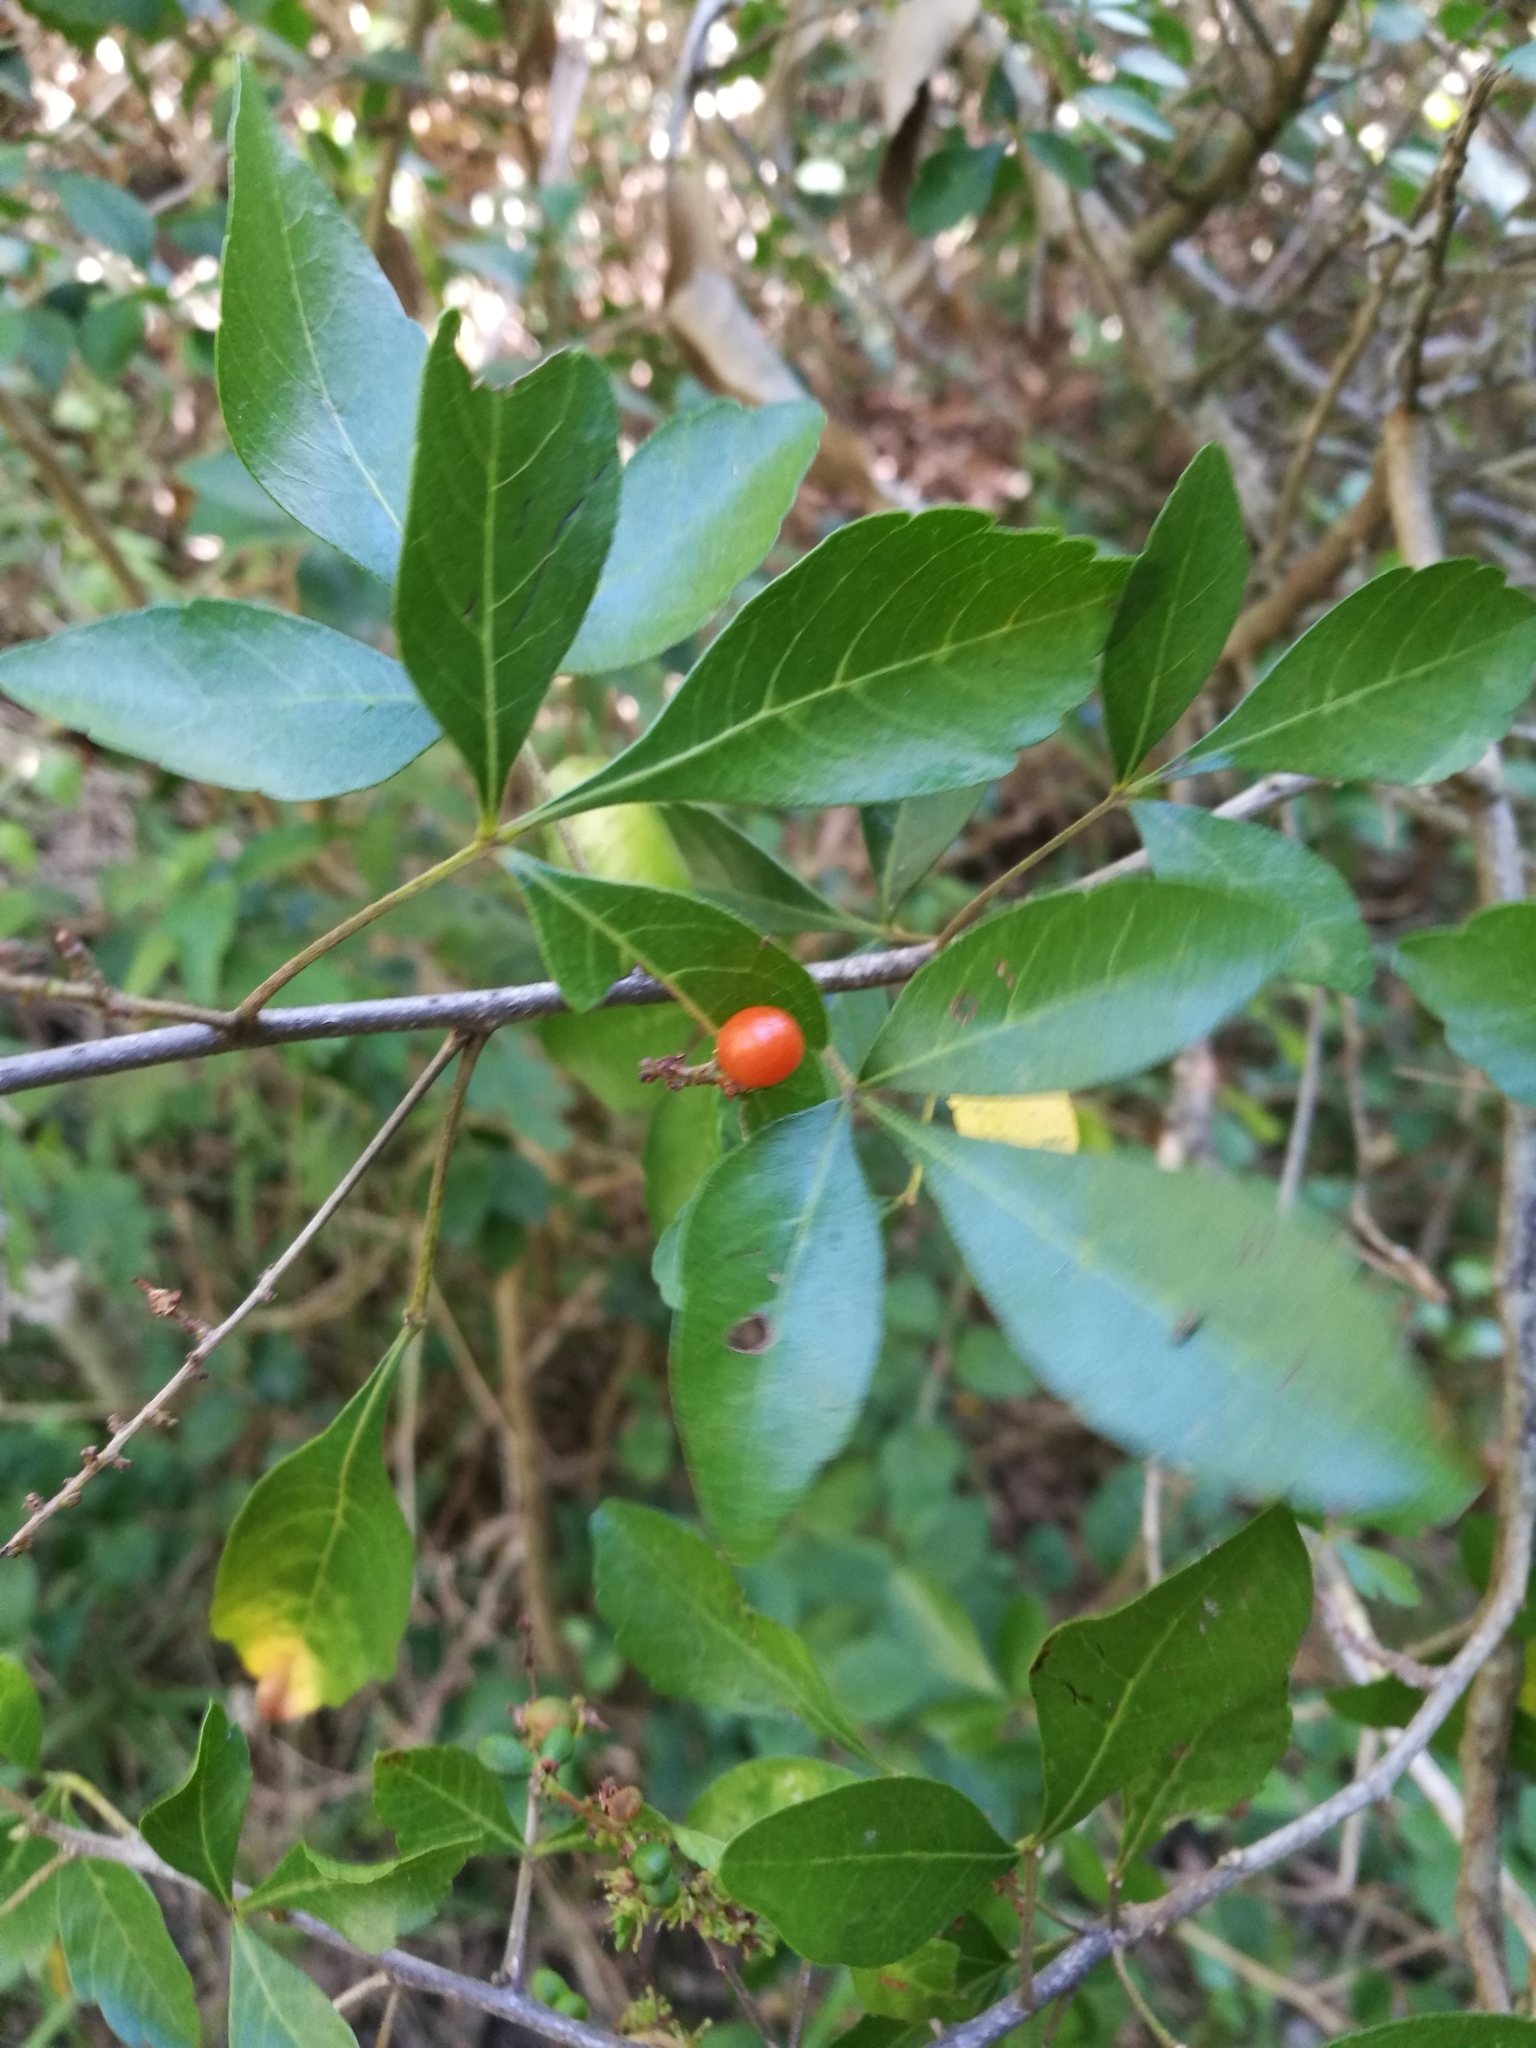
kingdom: Plantae
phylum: Tracheophyta
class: Magnoliopsida
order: Sapindales
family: Sapindaceae
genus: Allophylus
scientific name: Allophylus decipiens
